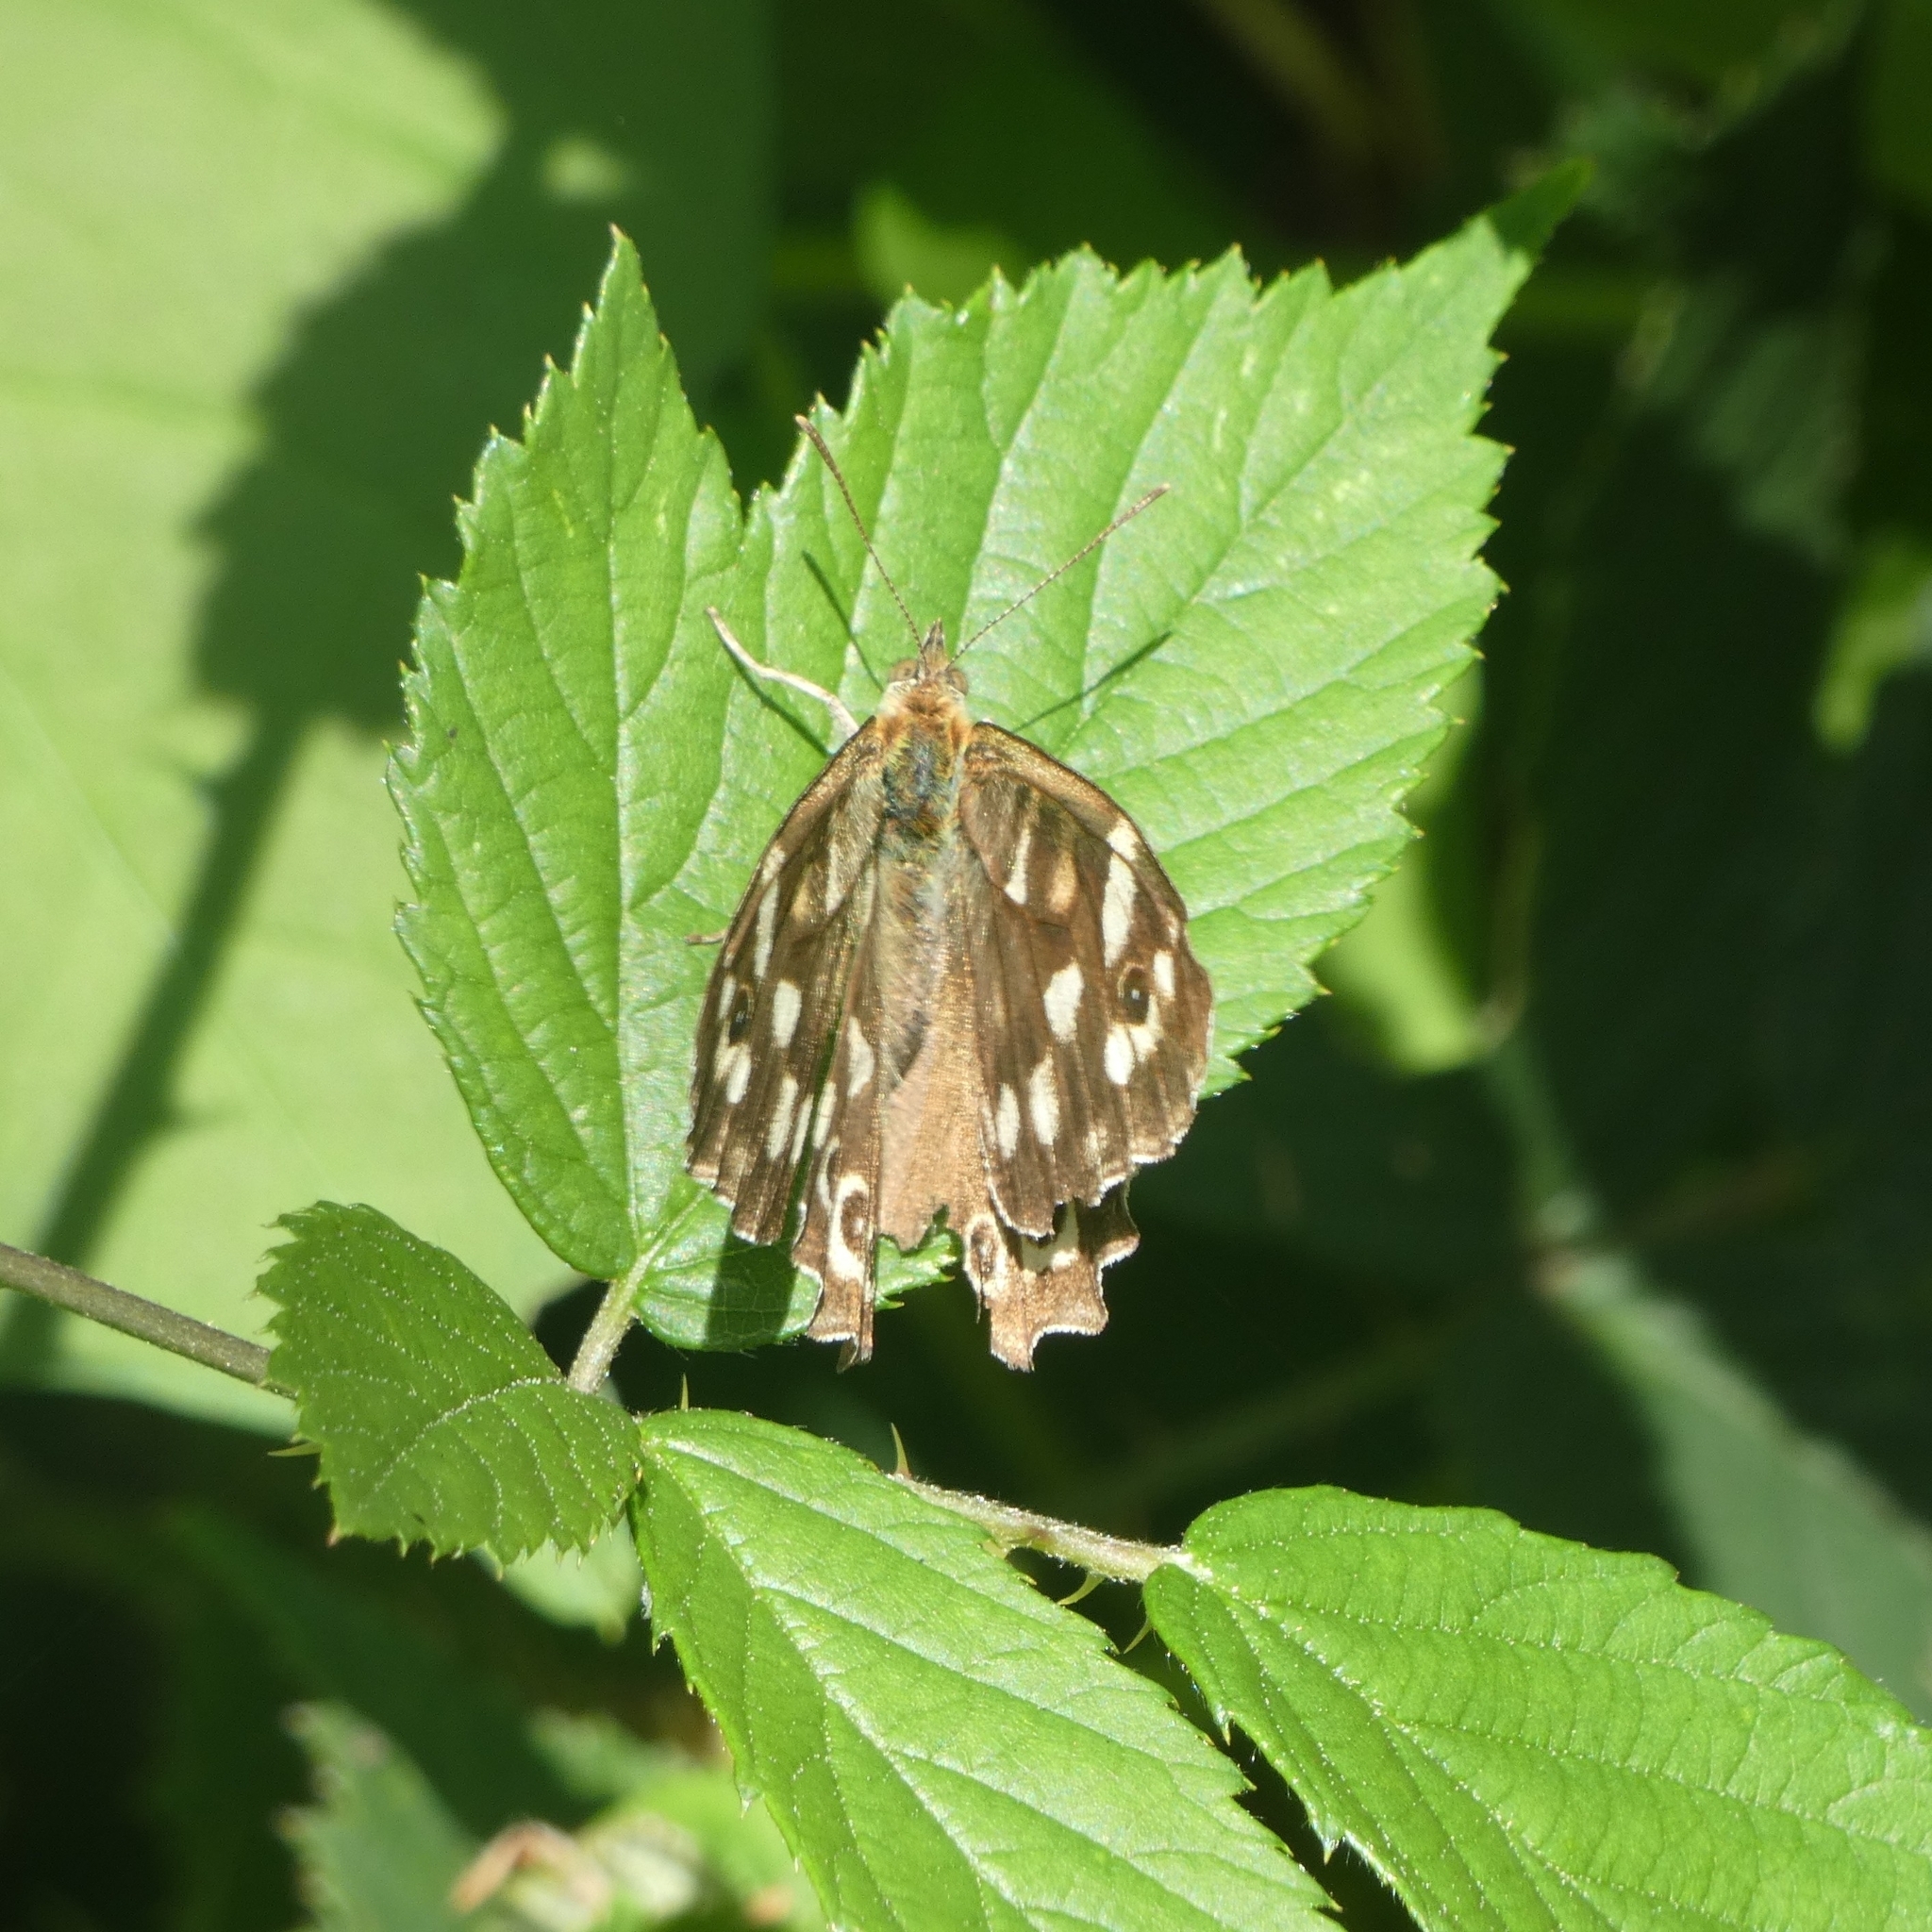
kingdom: Animalia
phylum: Arthropoda
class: Insecta
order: Lepidoptera
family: Nymphalidae
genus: Pararge
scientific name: Pararge aegeria
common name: Speckled wood
